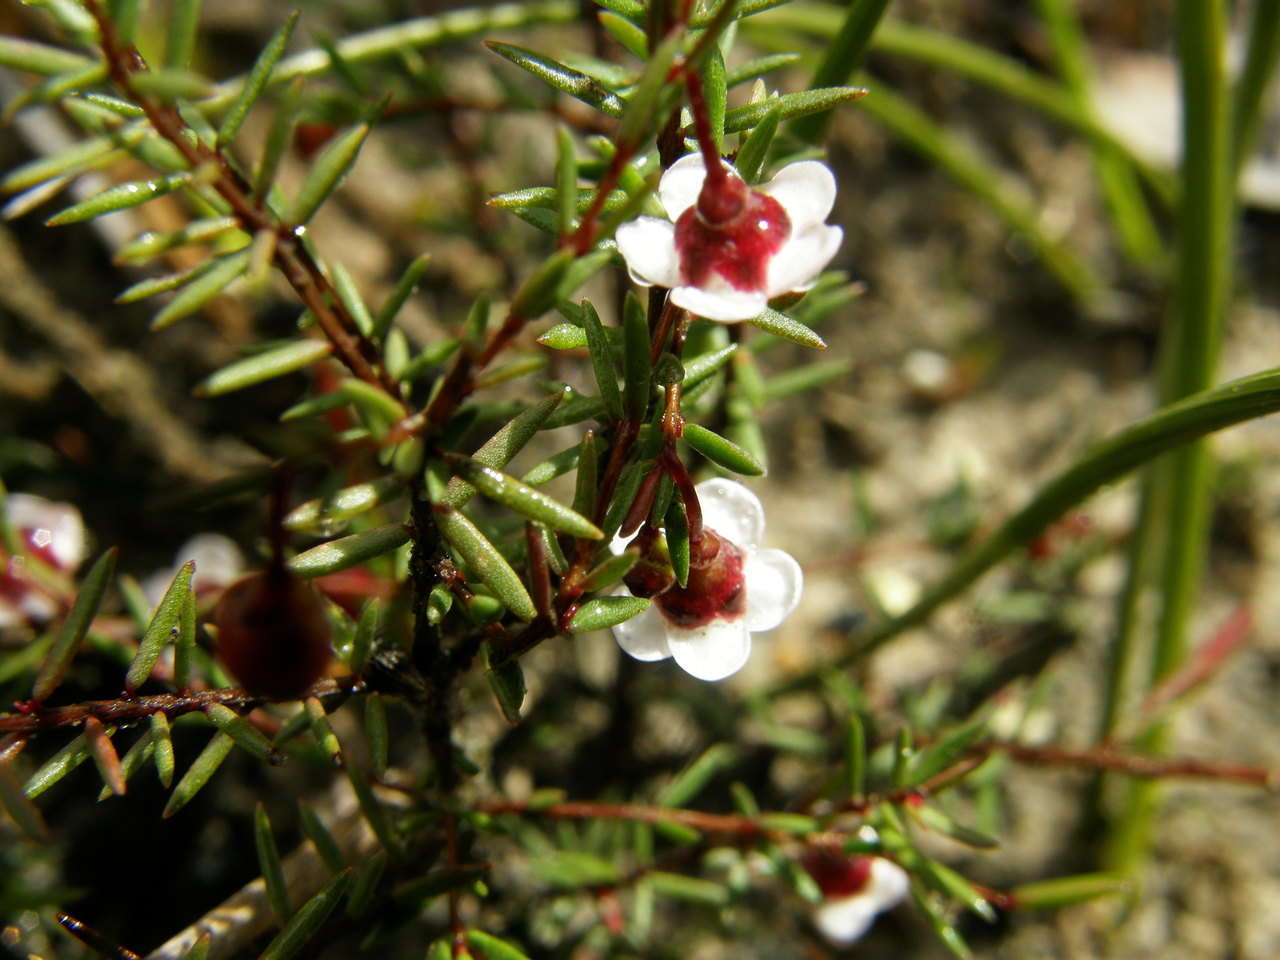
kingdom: Plantae
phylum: Tracheophyta
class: Magnoliopsida
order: Myrtales
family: Myrtaceae
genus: Euryomyrtus
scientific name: Euryomyrtus ramosissima
